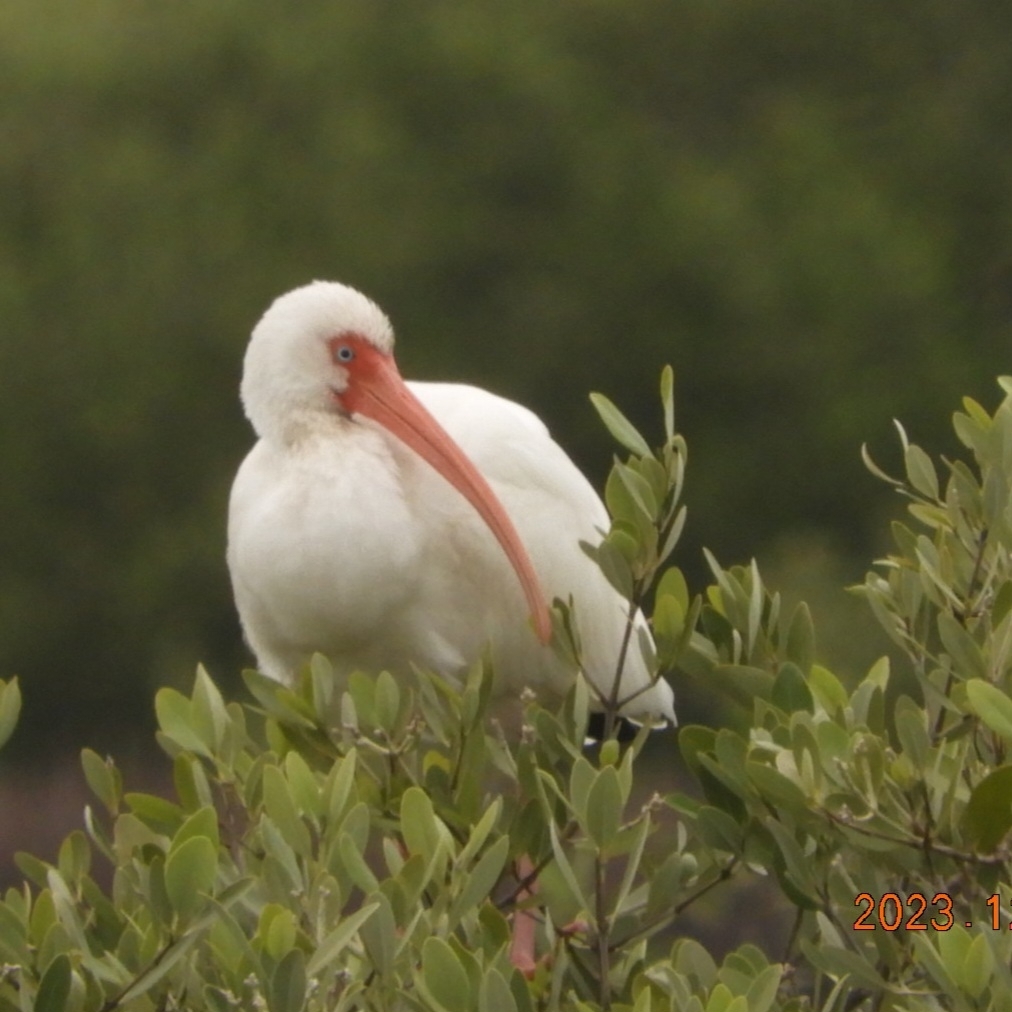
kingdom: Animalia
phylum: Chordata
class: Aves
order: Pelecaniformes
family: Threskiornithidae
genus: Eudocimus
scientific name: Eudocimus albus
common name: White ibis
